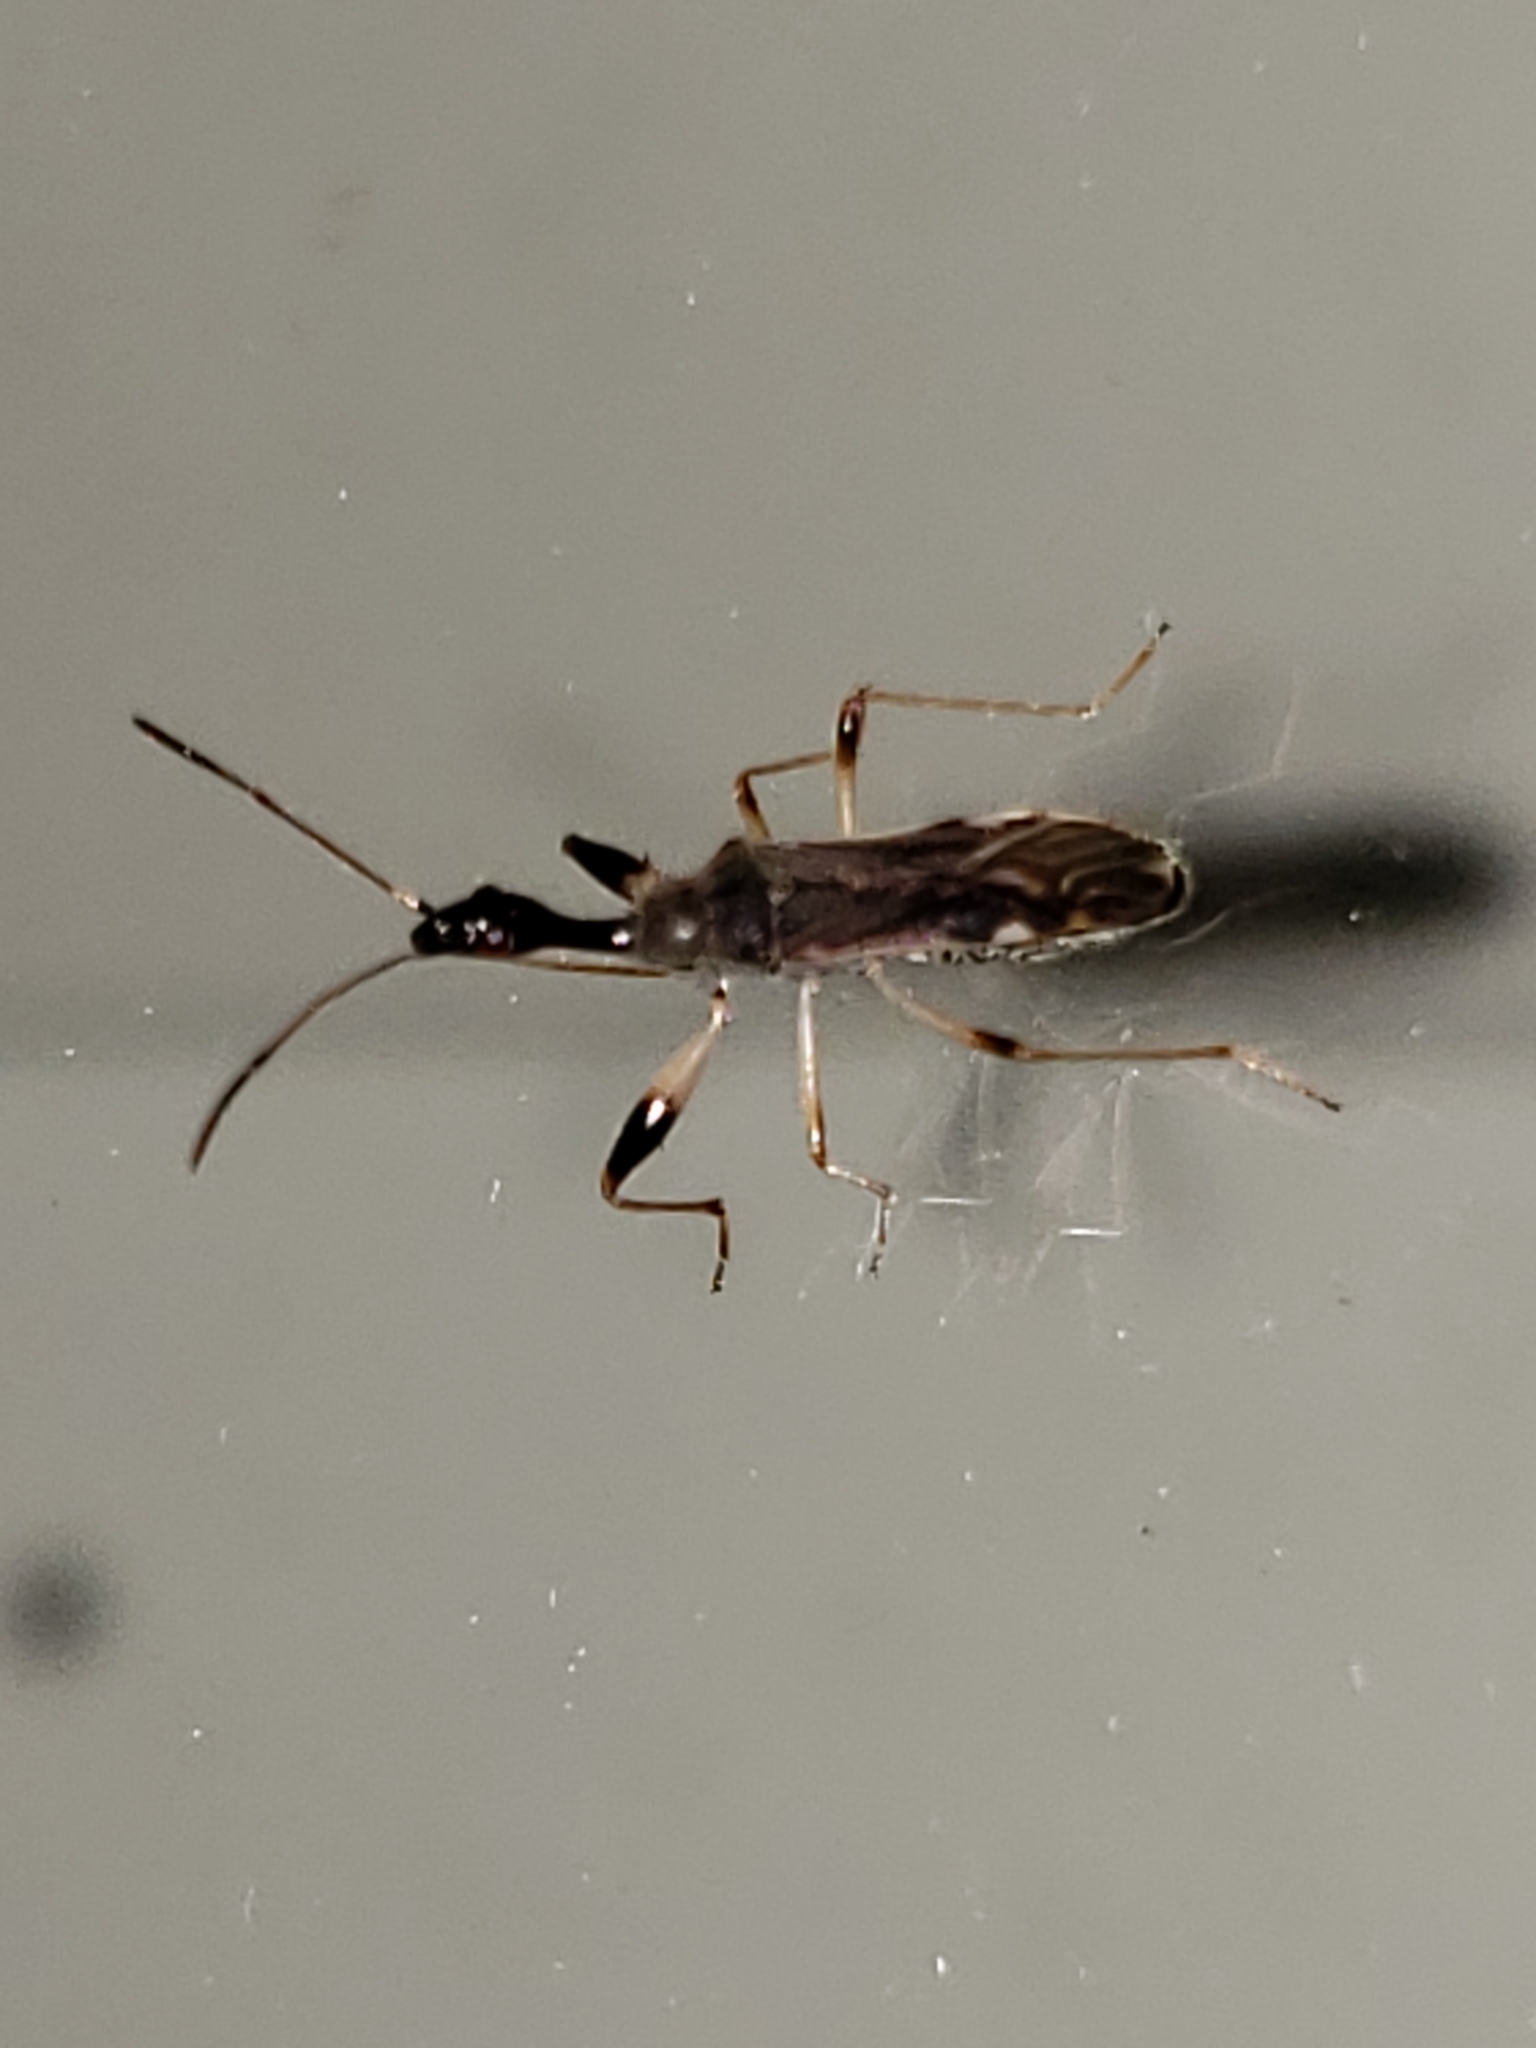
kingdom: Animalia
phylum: Arthropoda
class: Insecta
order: Hemiptera
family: Rhyparochromidae
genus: Myodocha
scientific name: Myodocha serripes
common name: Long-necked seed bug
